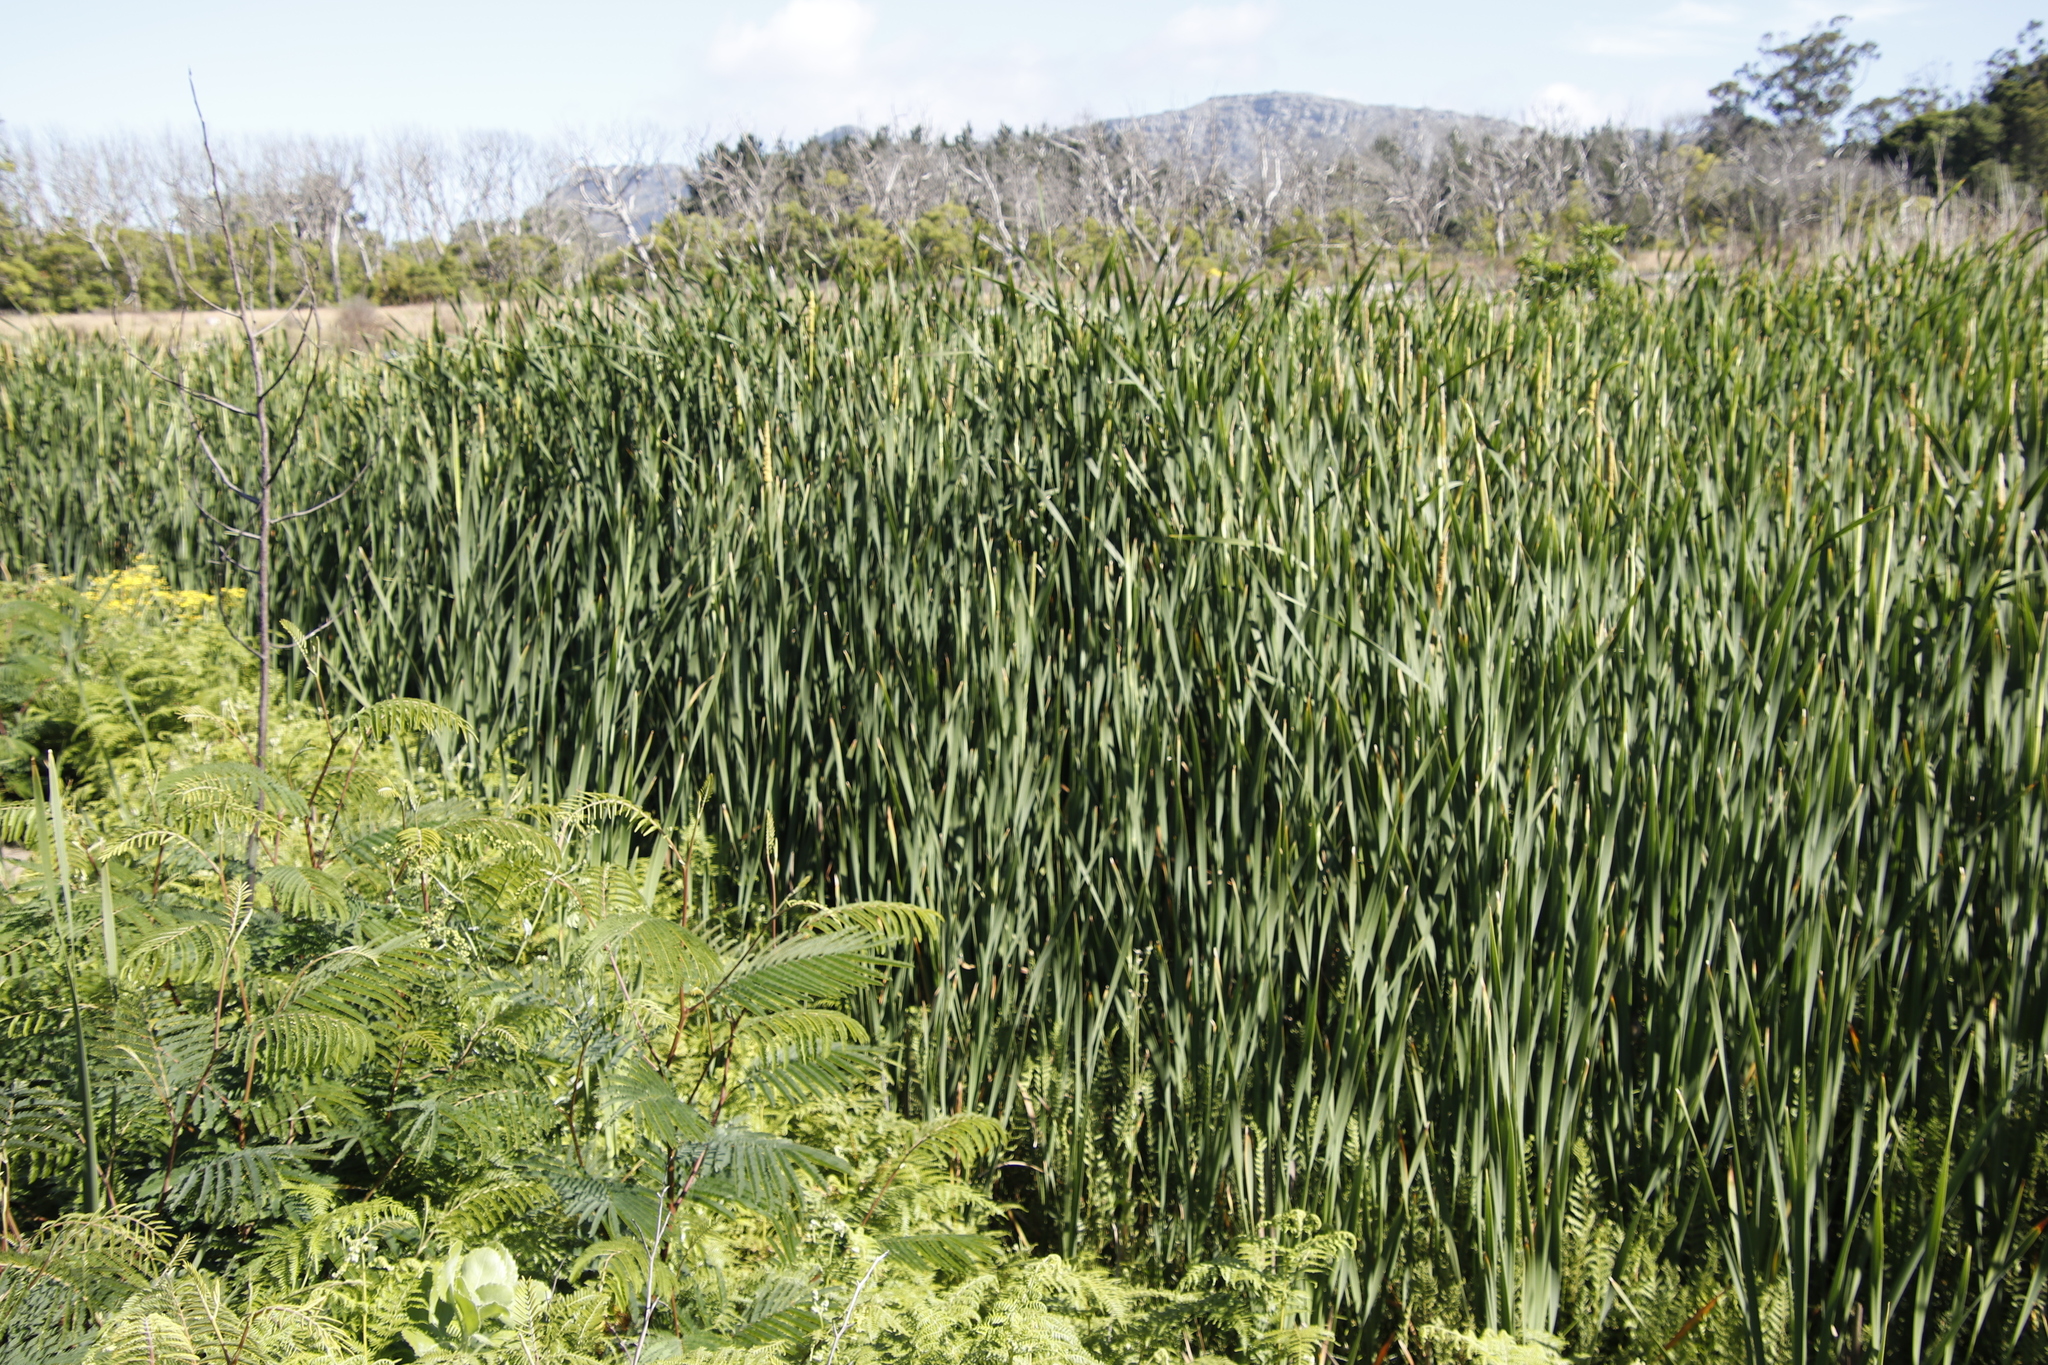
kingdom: Plantae
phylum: Tracheophyta
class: Liliopsida
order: Poales
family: Typhaceae
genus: Typha
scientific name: Typha capensis
